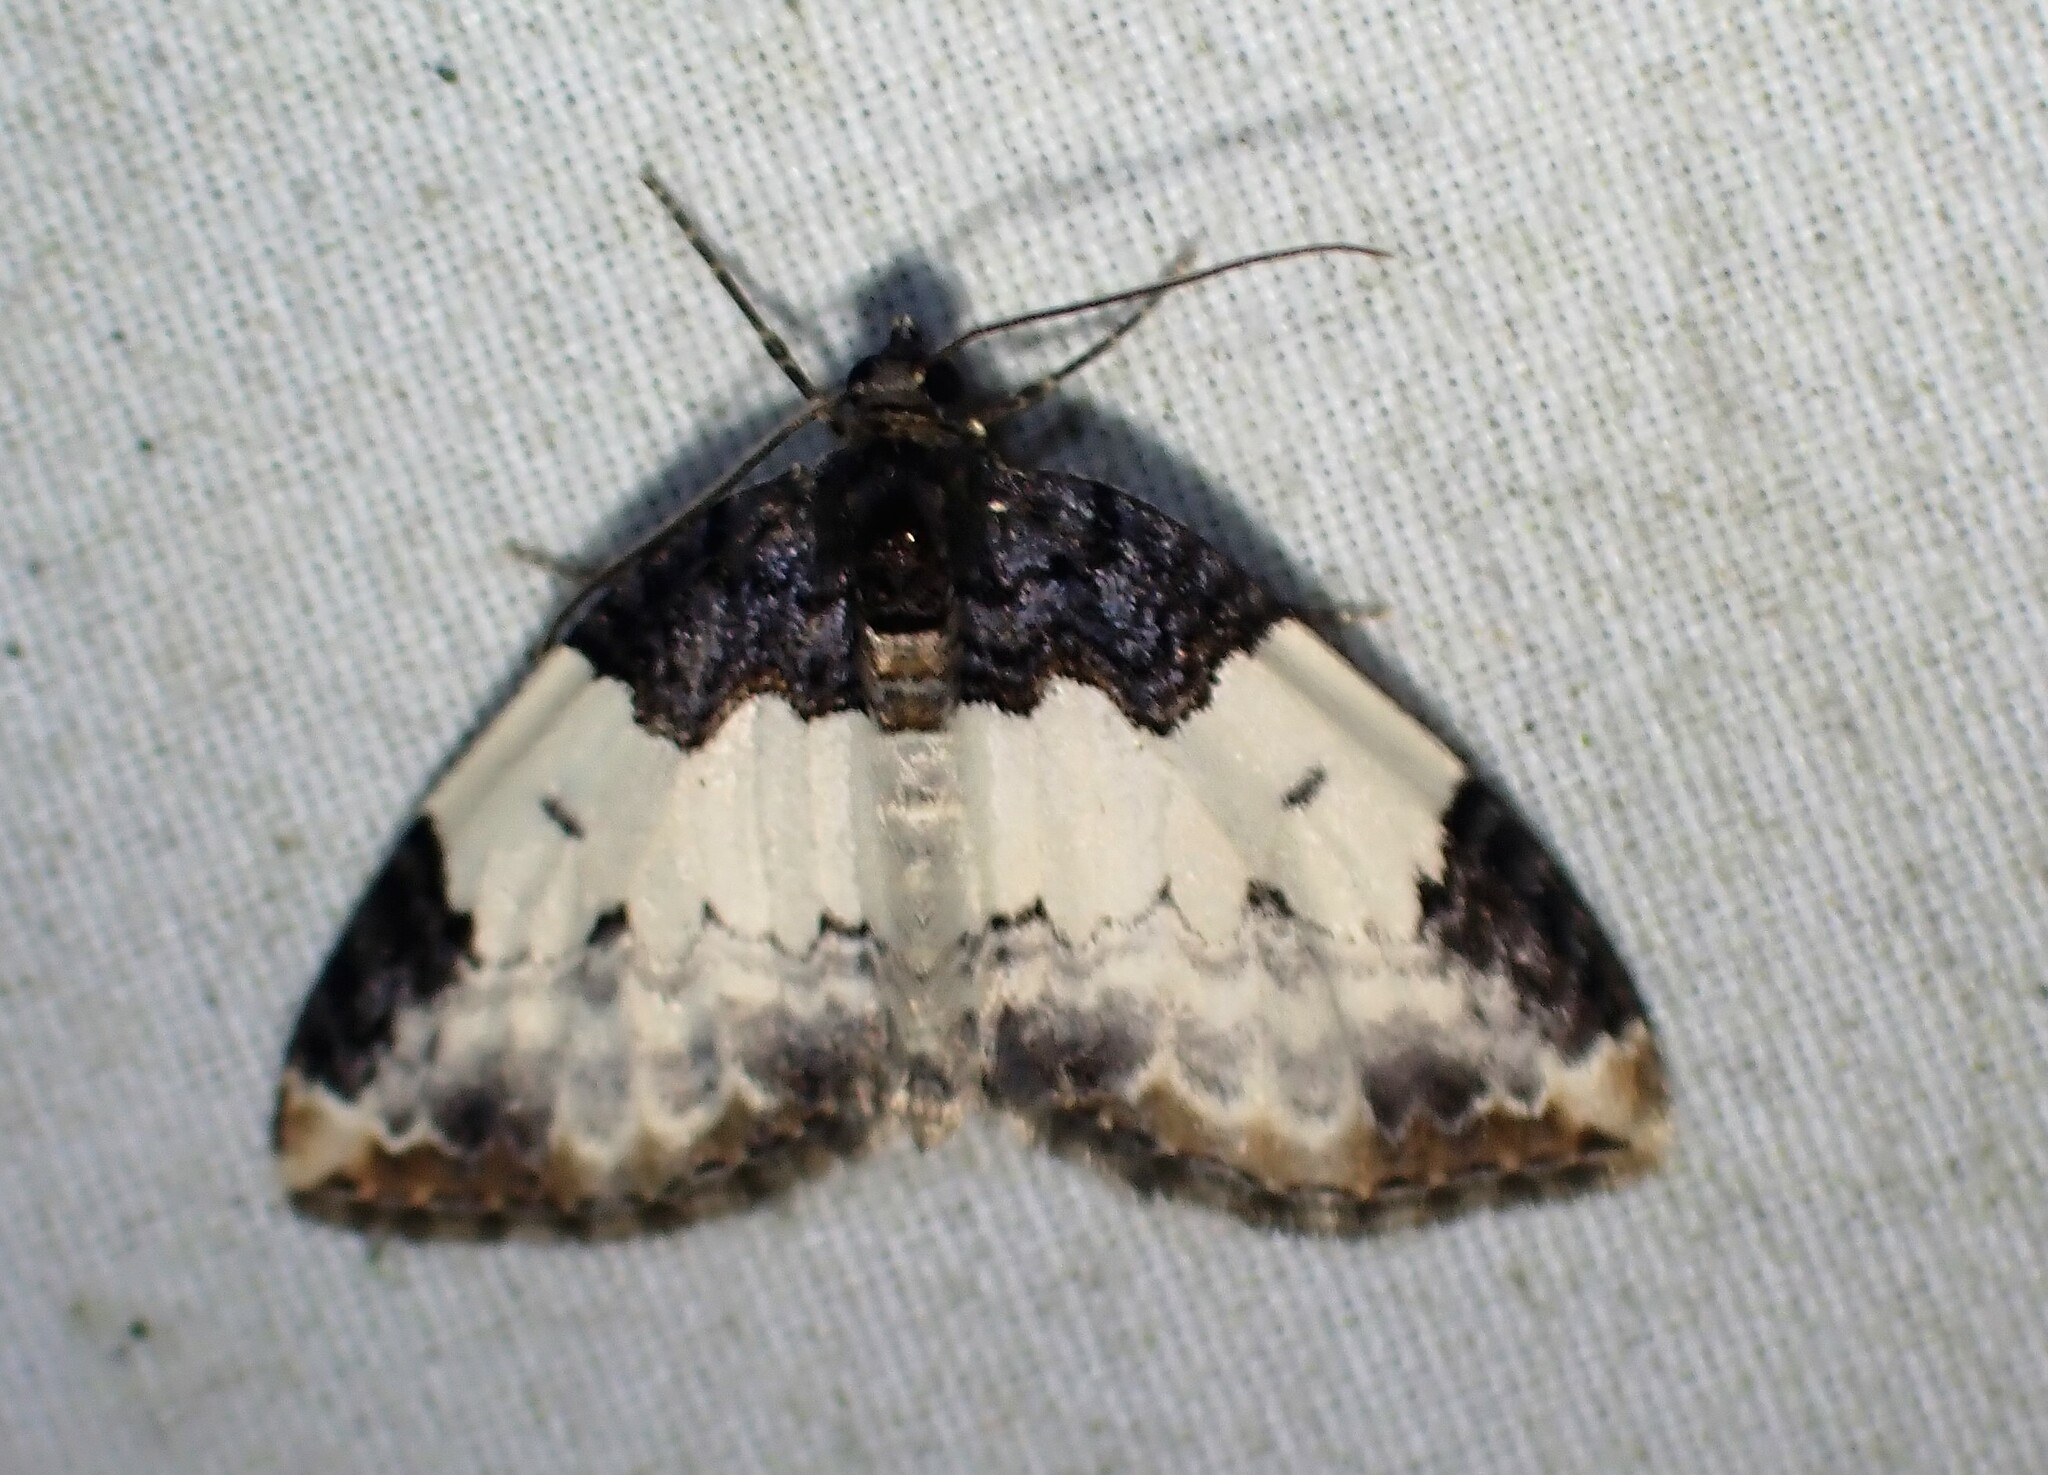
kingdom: Animalia
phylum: Arthropoda
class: Insecta
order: Lepidoptera
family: Geometridae
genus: Mesoleuca
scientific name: Mesoleuca ruficillata
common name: White-ribboned carpet moth
